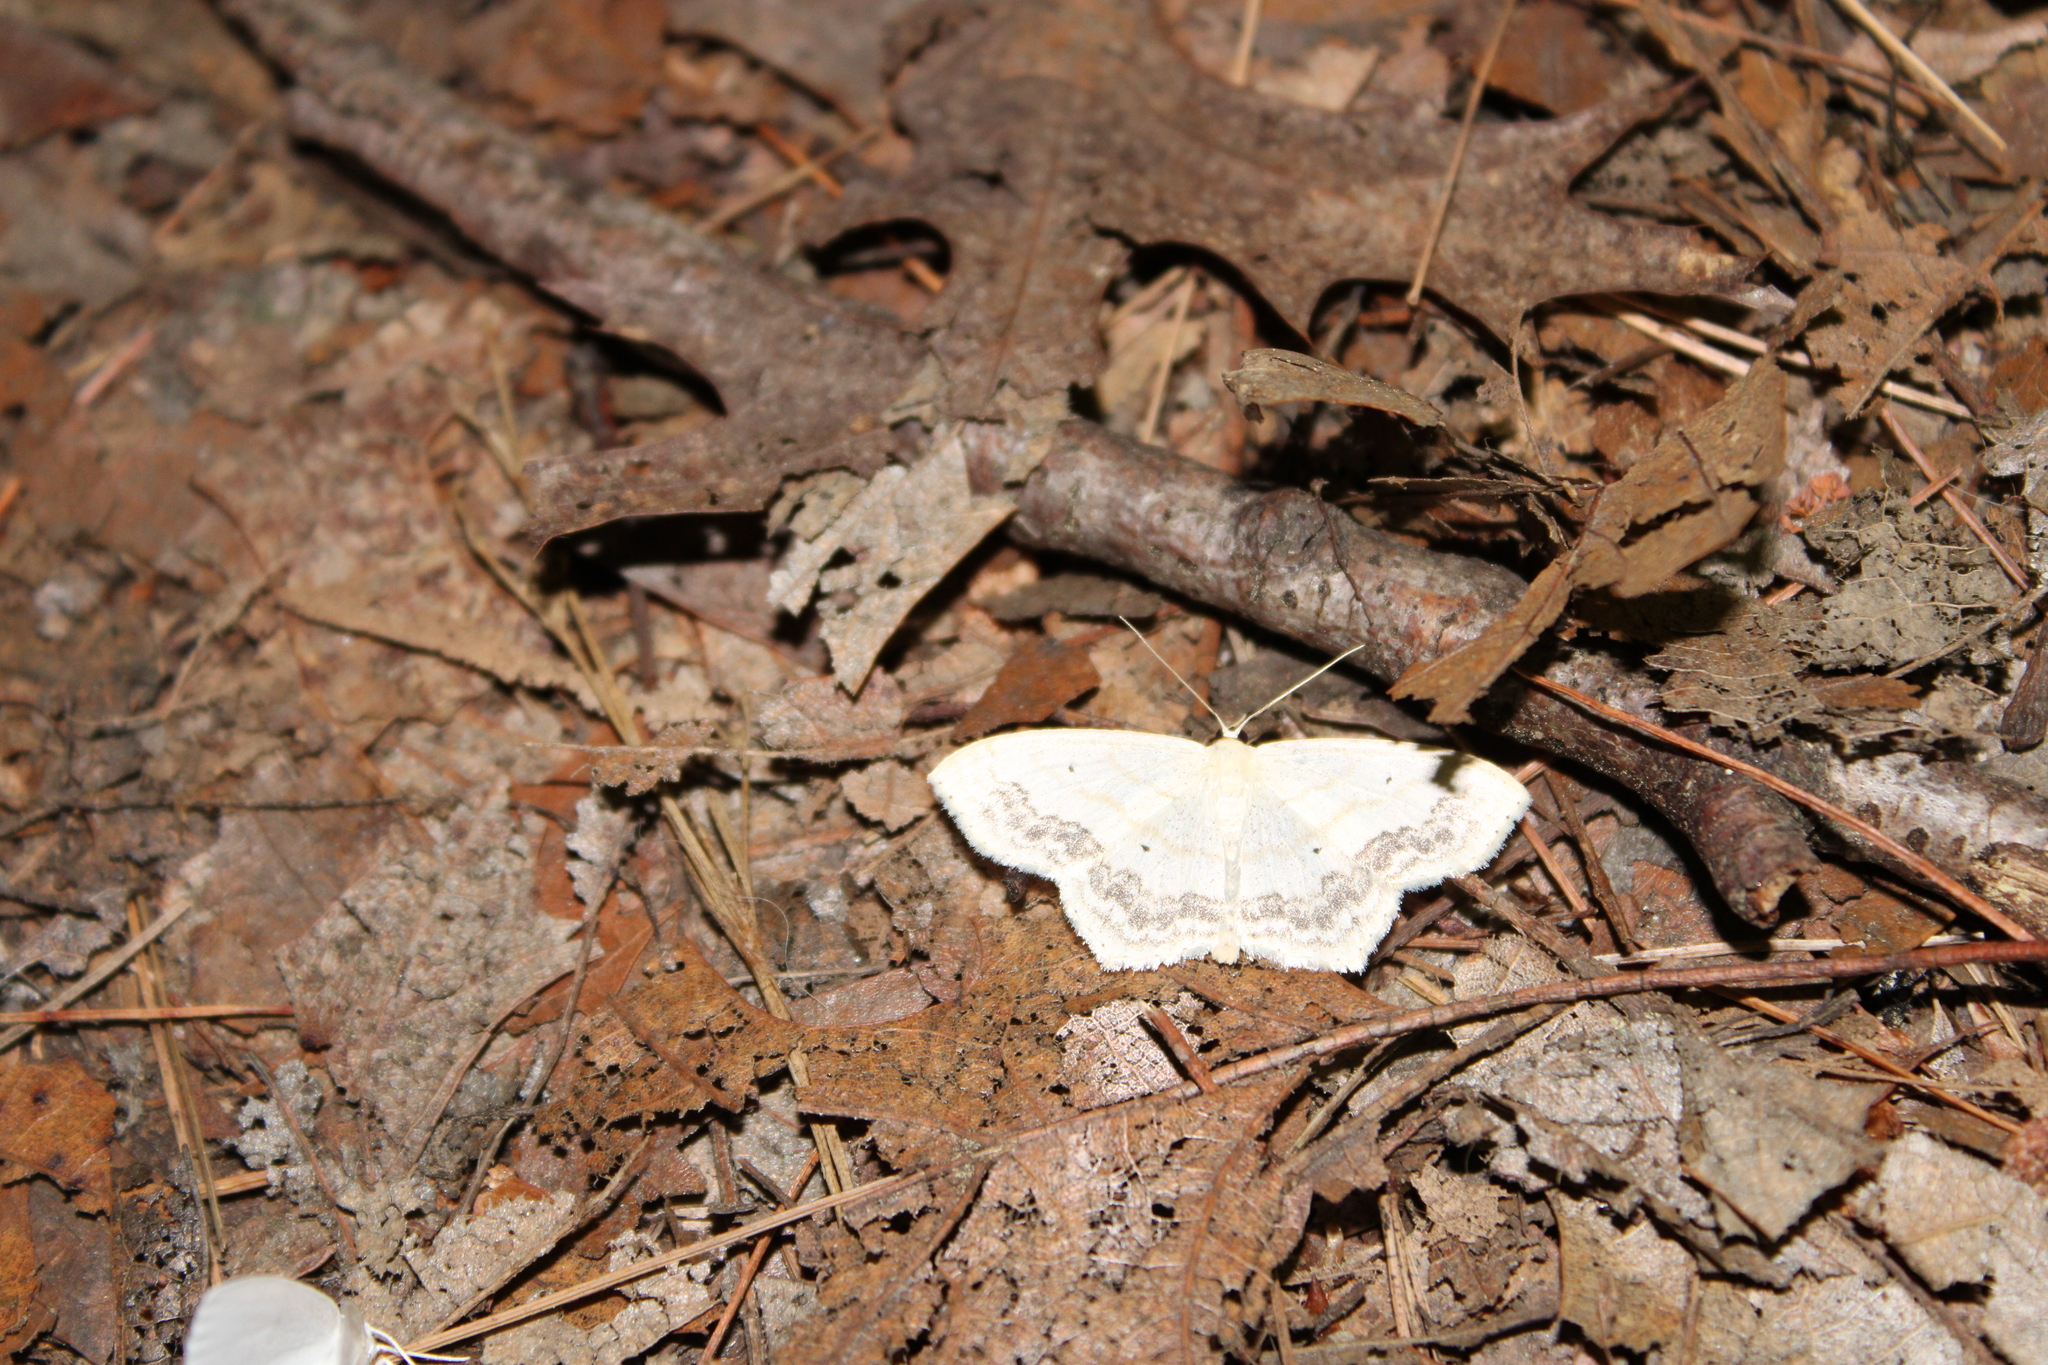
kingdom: Animalia
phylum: Arthropoda
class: Insecta
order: Lepidoptera
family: Geometridae
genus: Scopula
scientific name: Scopula limboundata
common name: Large lace border
